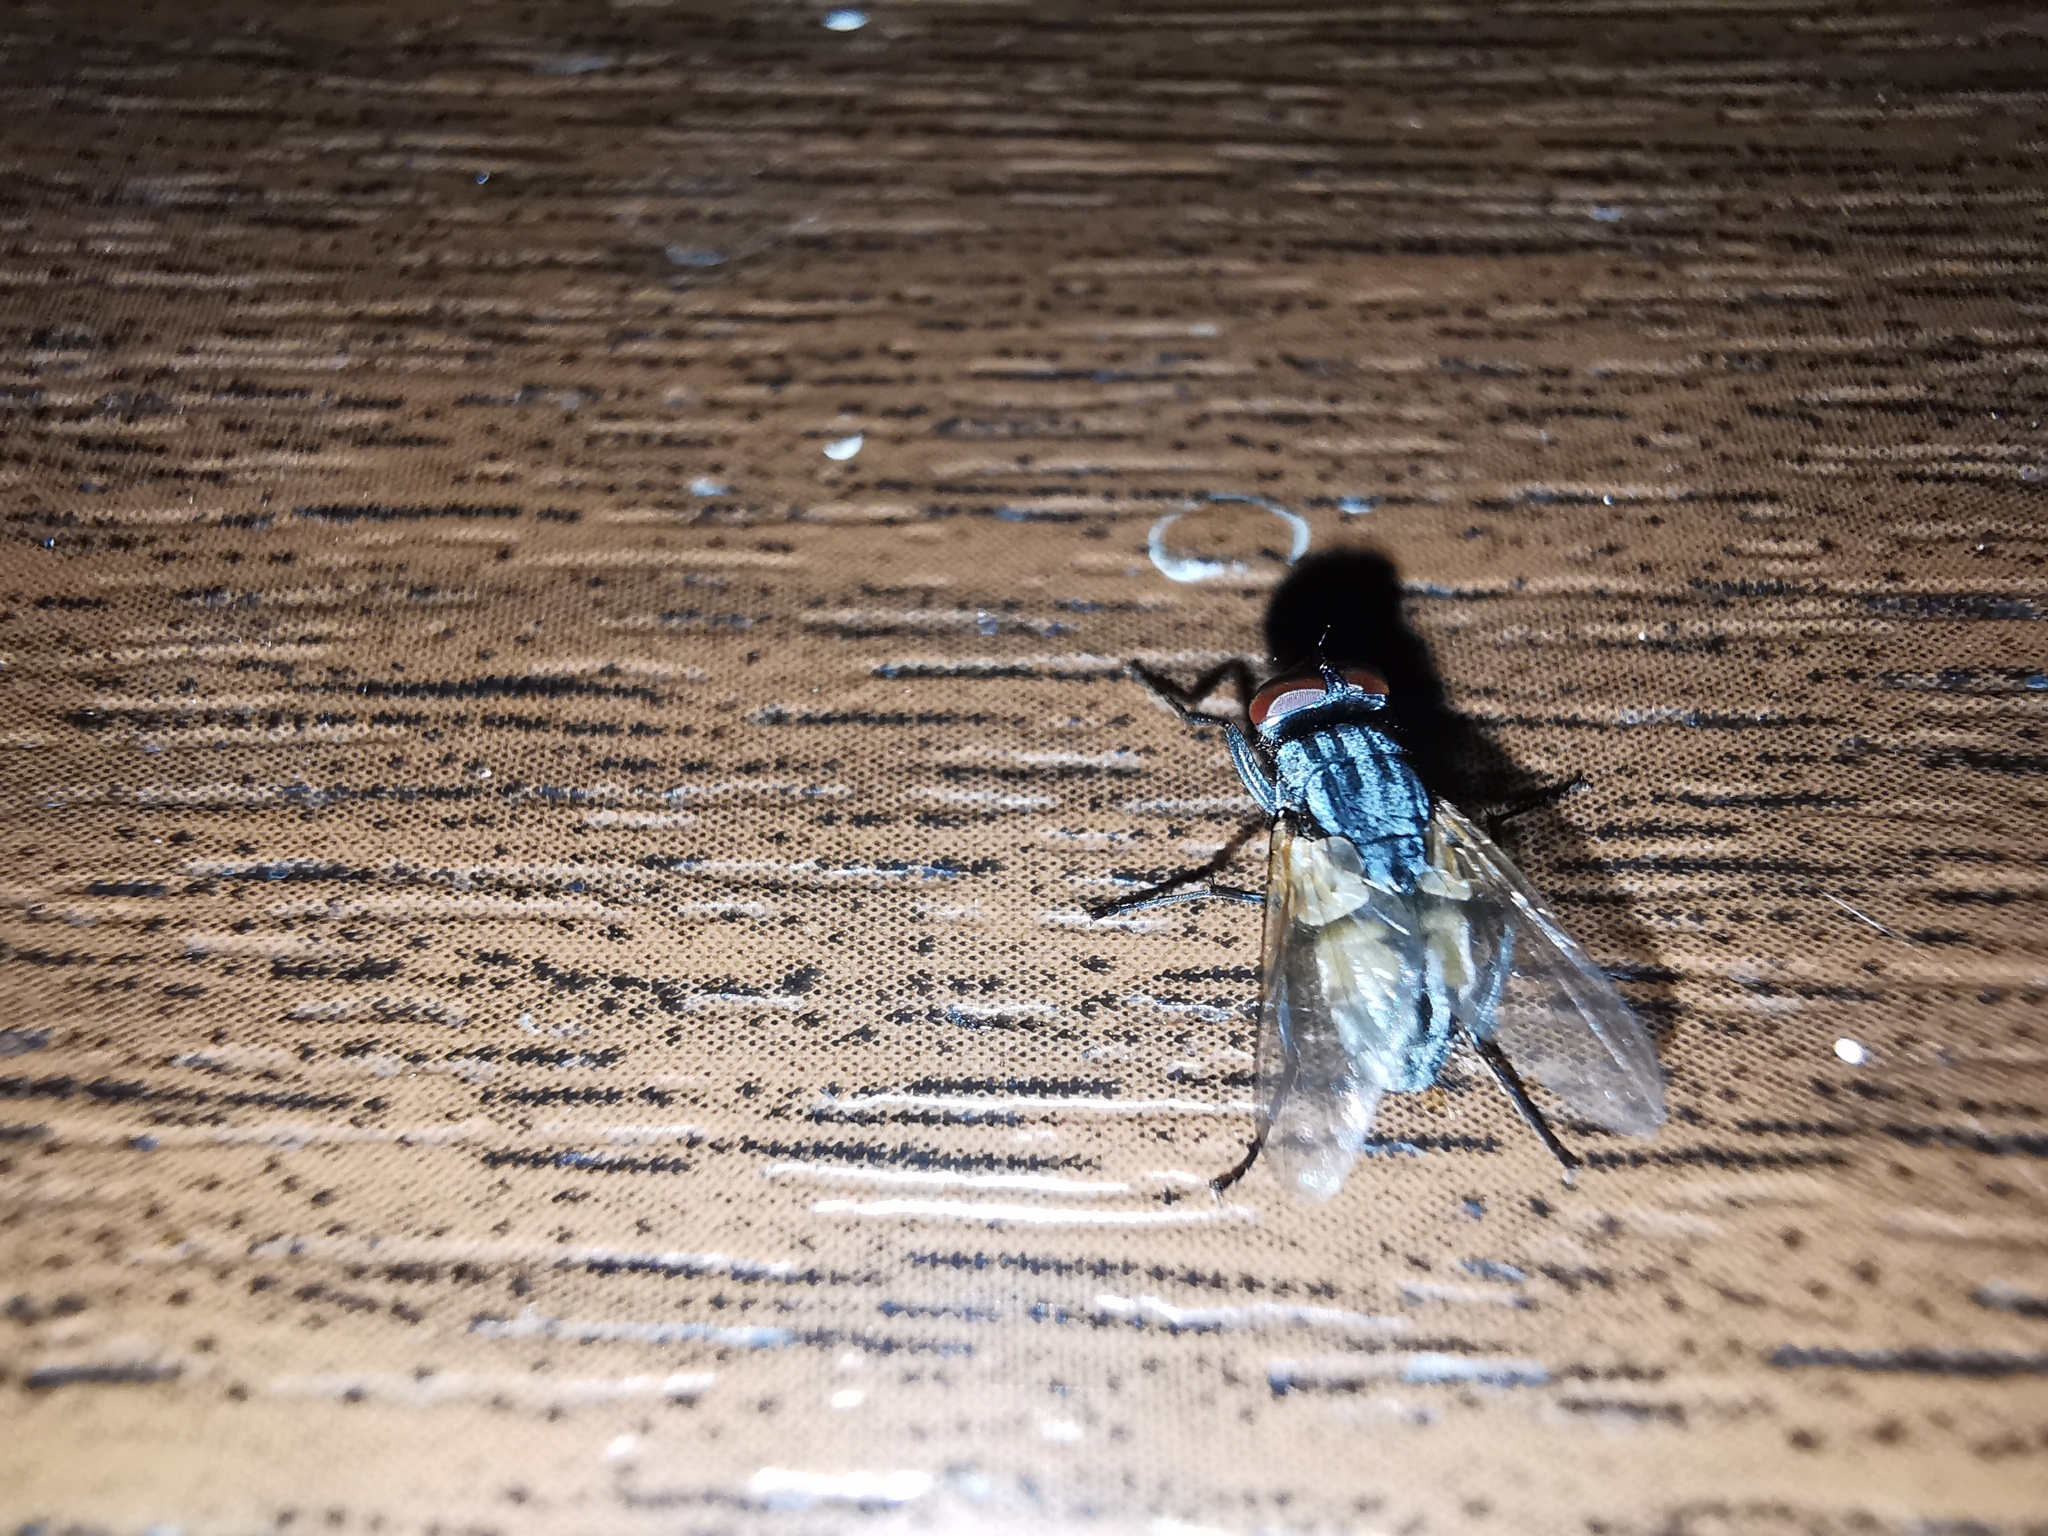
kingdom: Animalia
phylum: Arthropoda
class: Insecta
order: Diptera
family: Muscidae
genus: Musca
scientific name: Musca
